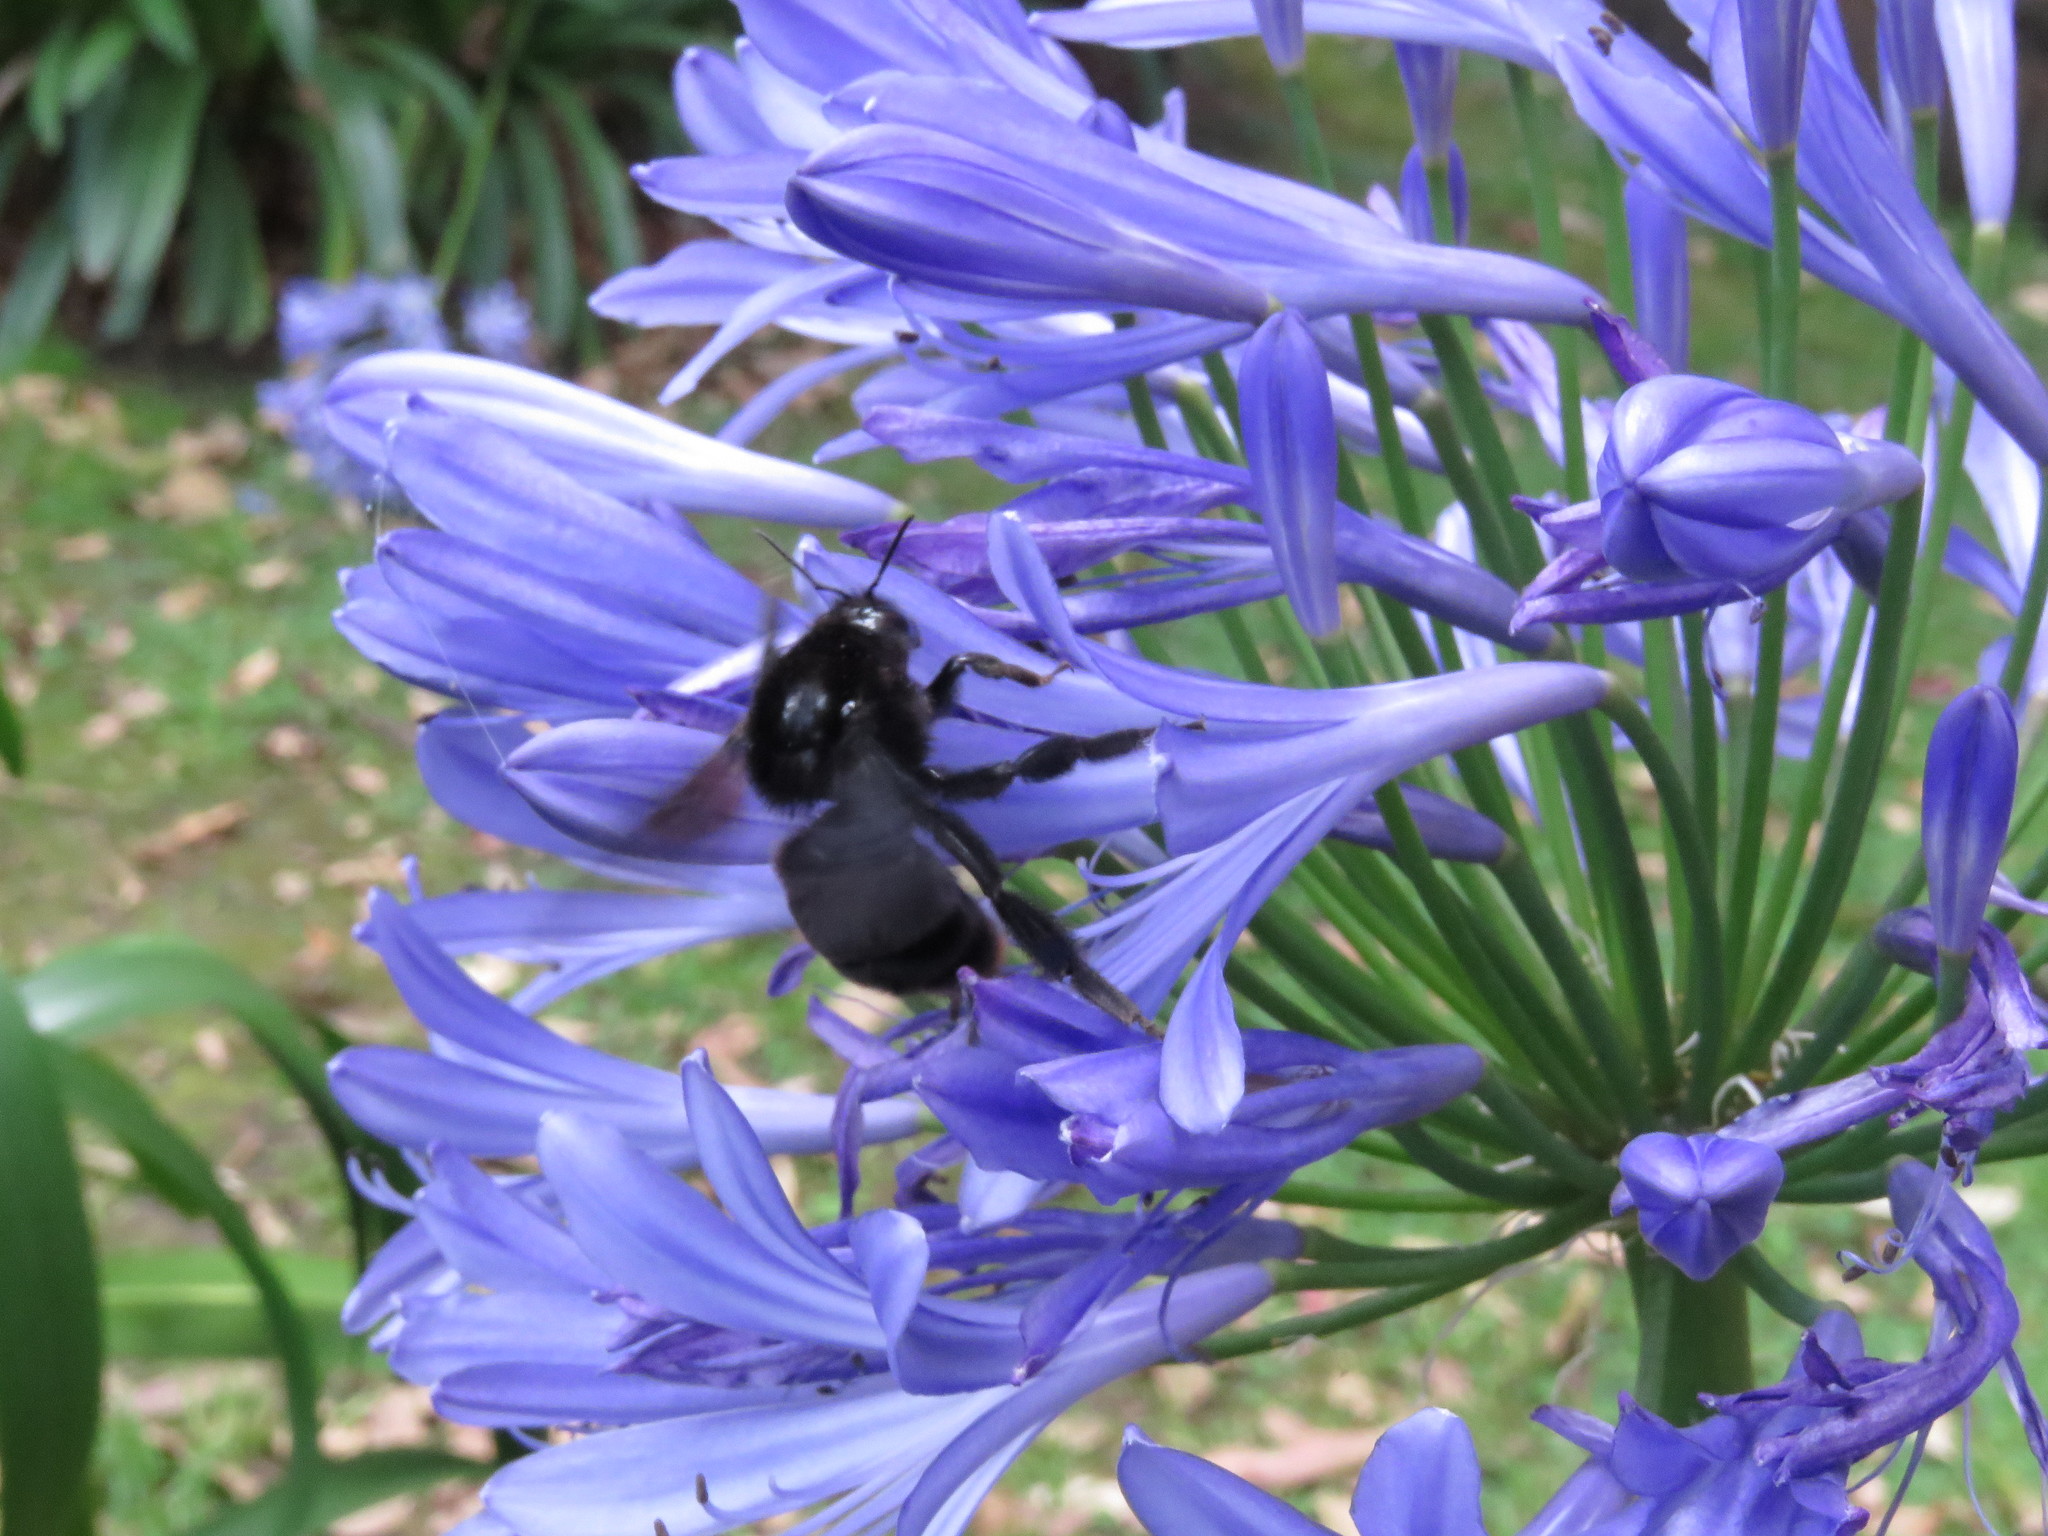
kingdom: Animalia
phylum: Arthropoda
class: Insecta
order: Hymenoptera
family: Apidae
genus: Bombus
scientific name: Bombus pauloensis
